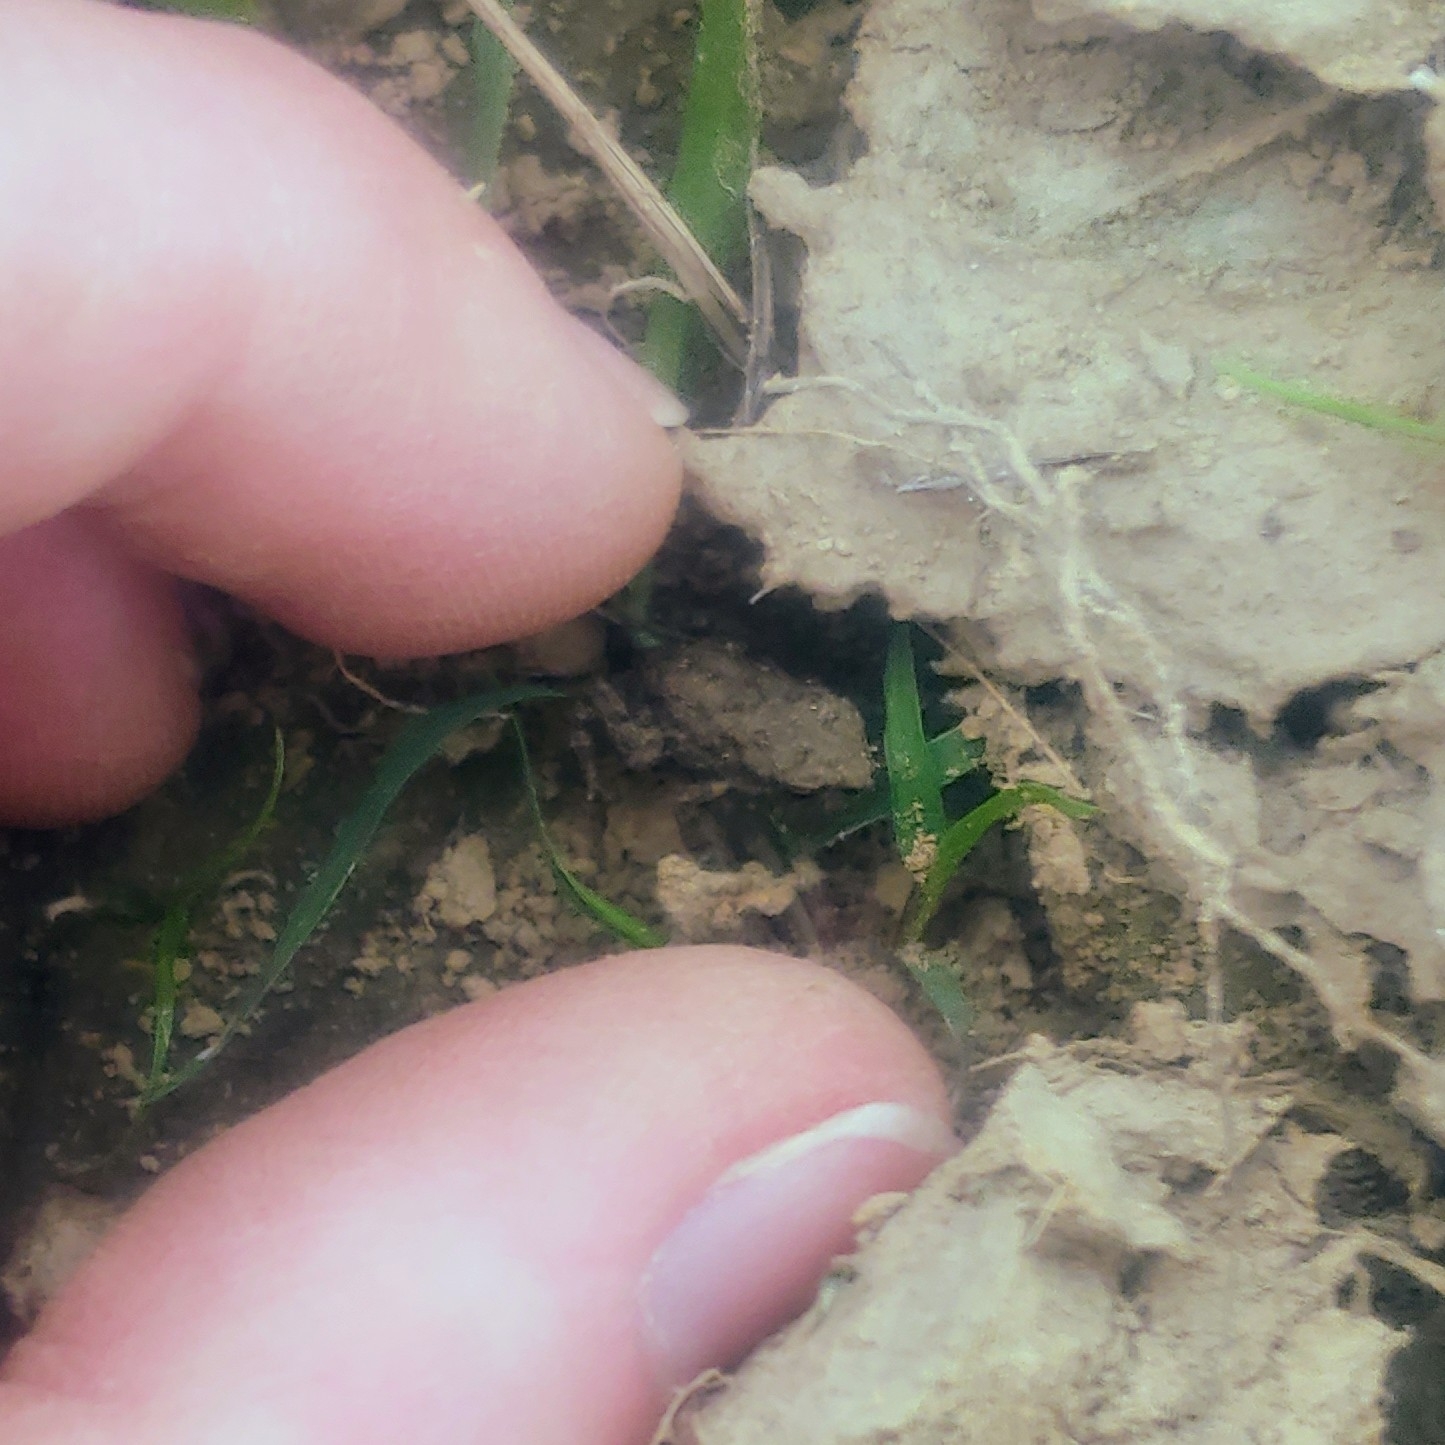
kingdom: Animalia
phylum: Chordata
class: Amphibia
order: Anura
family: Bufonidae
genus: Anaxyrus
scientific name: Anaxyrus
